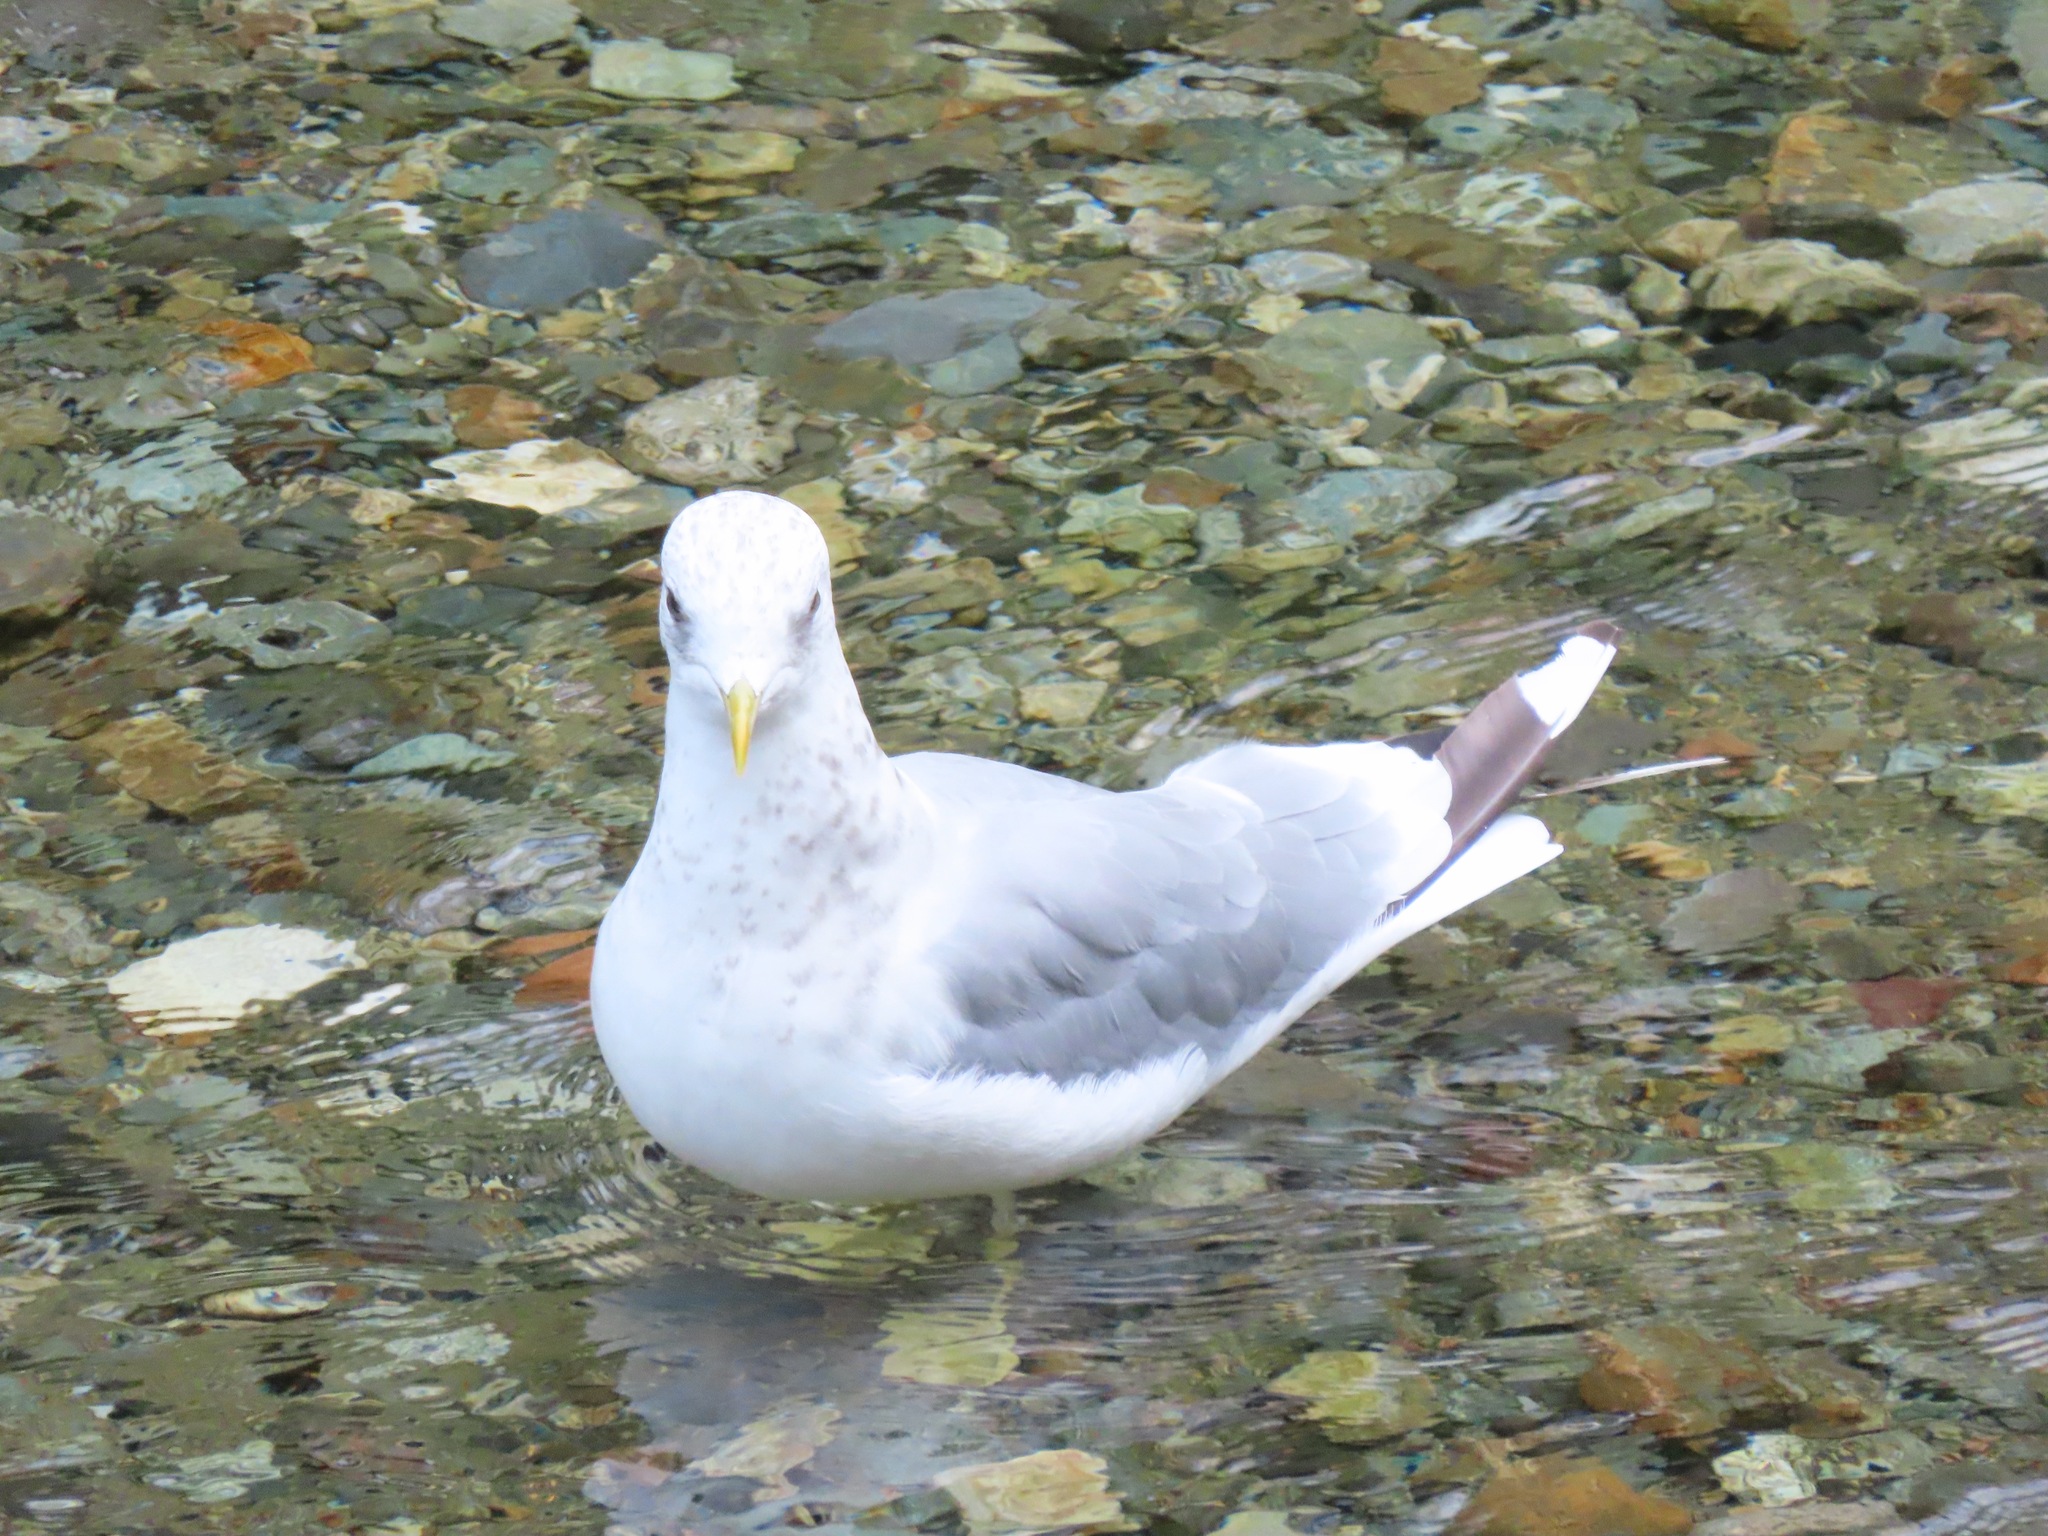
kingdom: Animalia
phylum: Chordata
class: Aves
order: Charadriiformes
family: Laridae
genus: Larus
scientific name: Larus brachyrhynchus
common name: Short-billed gull
